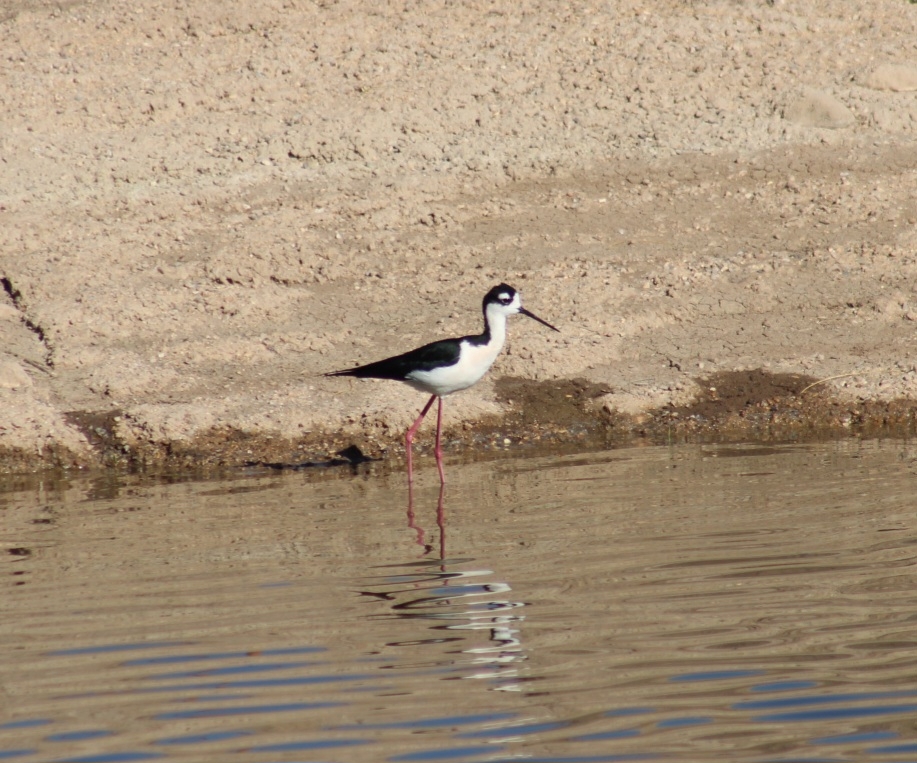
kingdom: Animalia
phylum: Chordata
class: Aves
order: Charadriiformes
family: Recurvirostridae
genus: Himantopus
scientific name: Himantopus mexicanus
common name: Black-necked stilt
